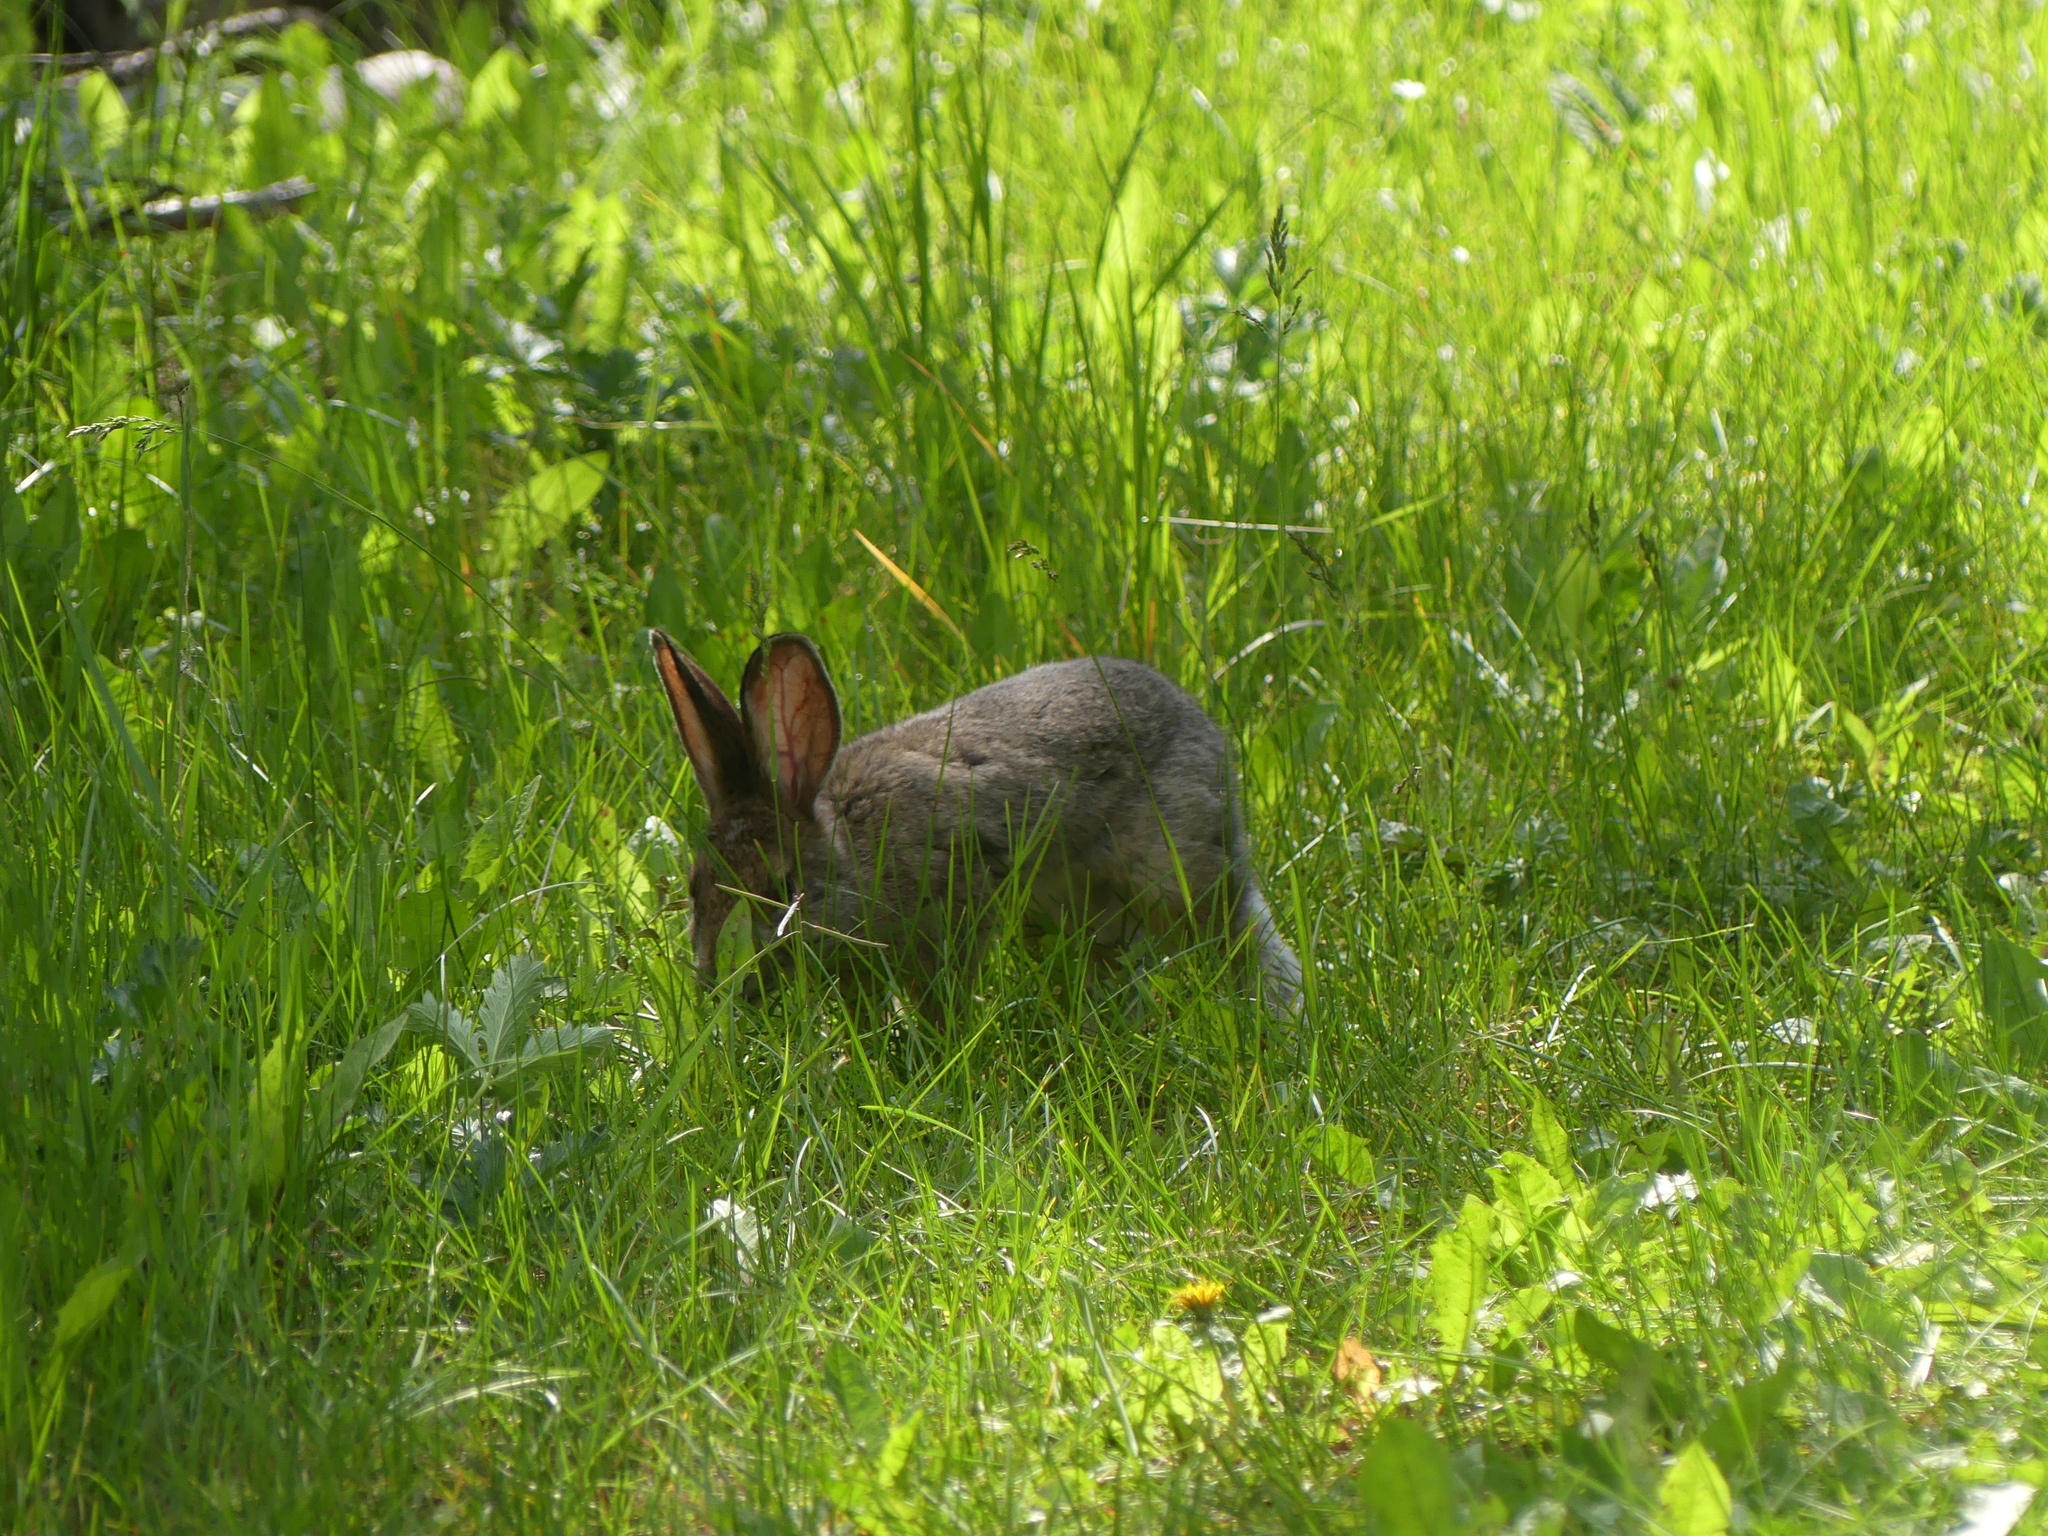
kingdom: Animalia
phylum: Chordata
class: Mammalia
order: Lagomorpha
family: Leporidae
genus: Lepus
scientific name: Lepus americanus
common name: Snowshoe hare
